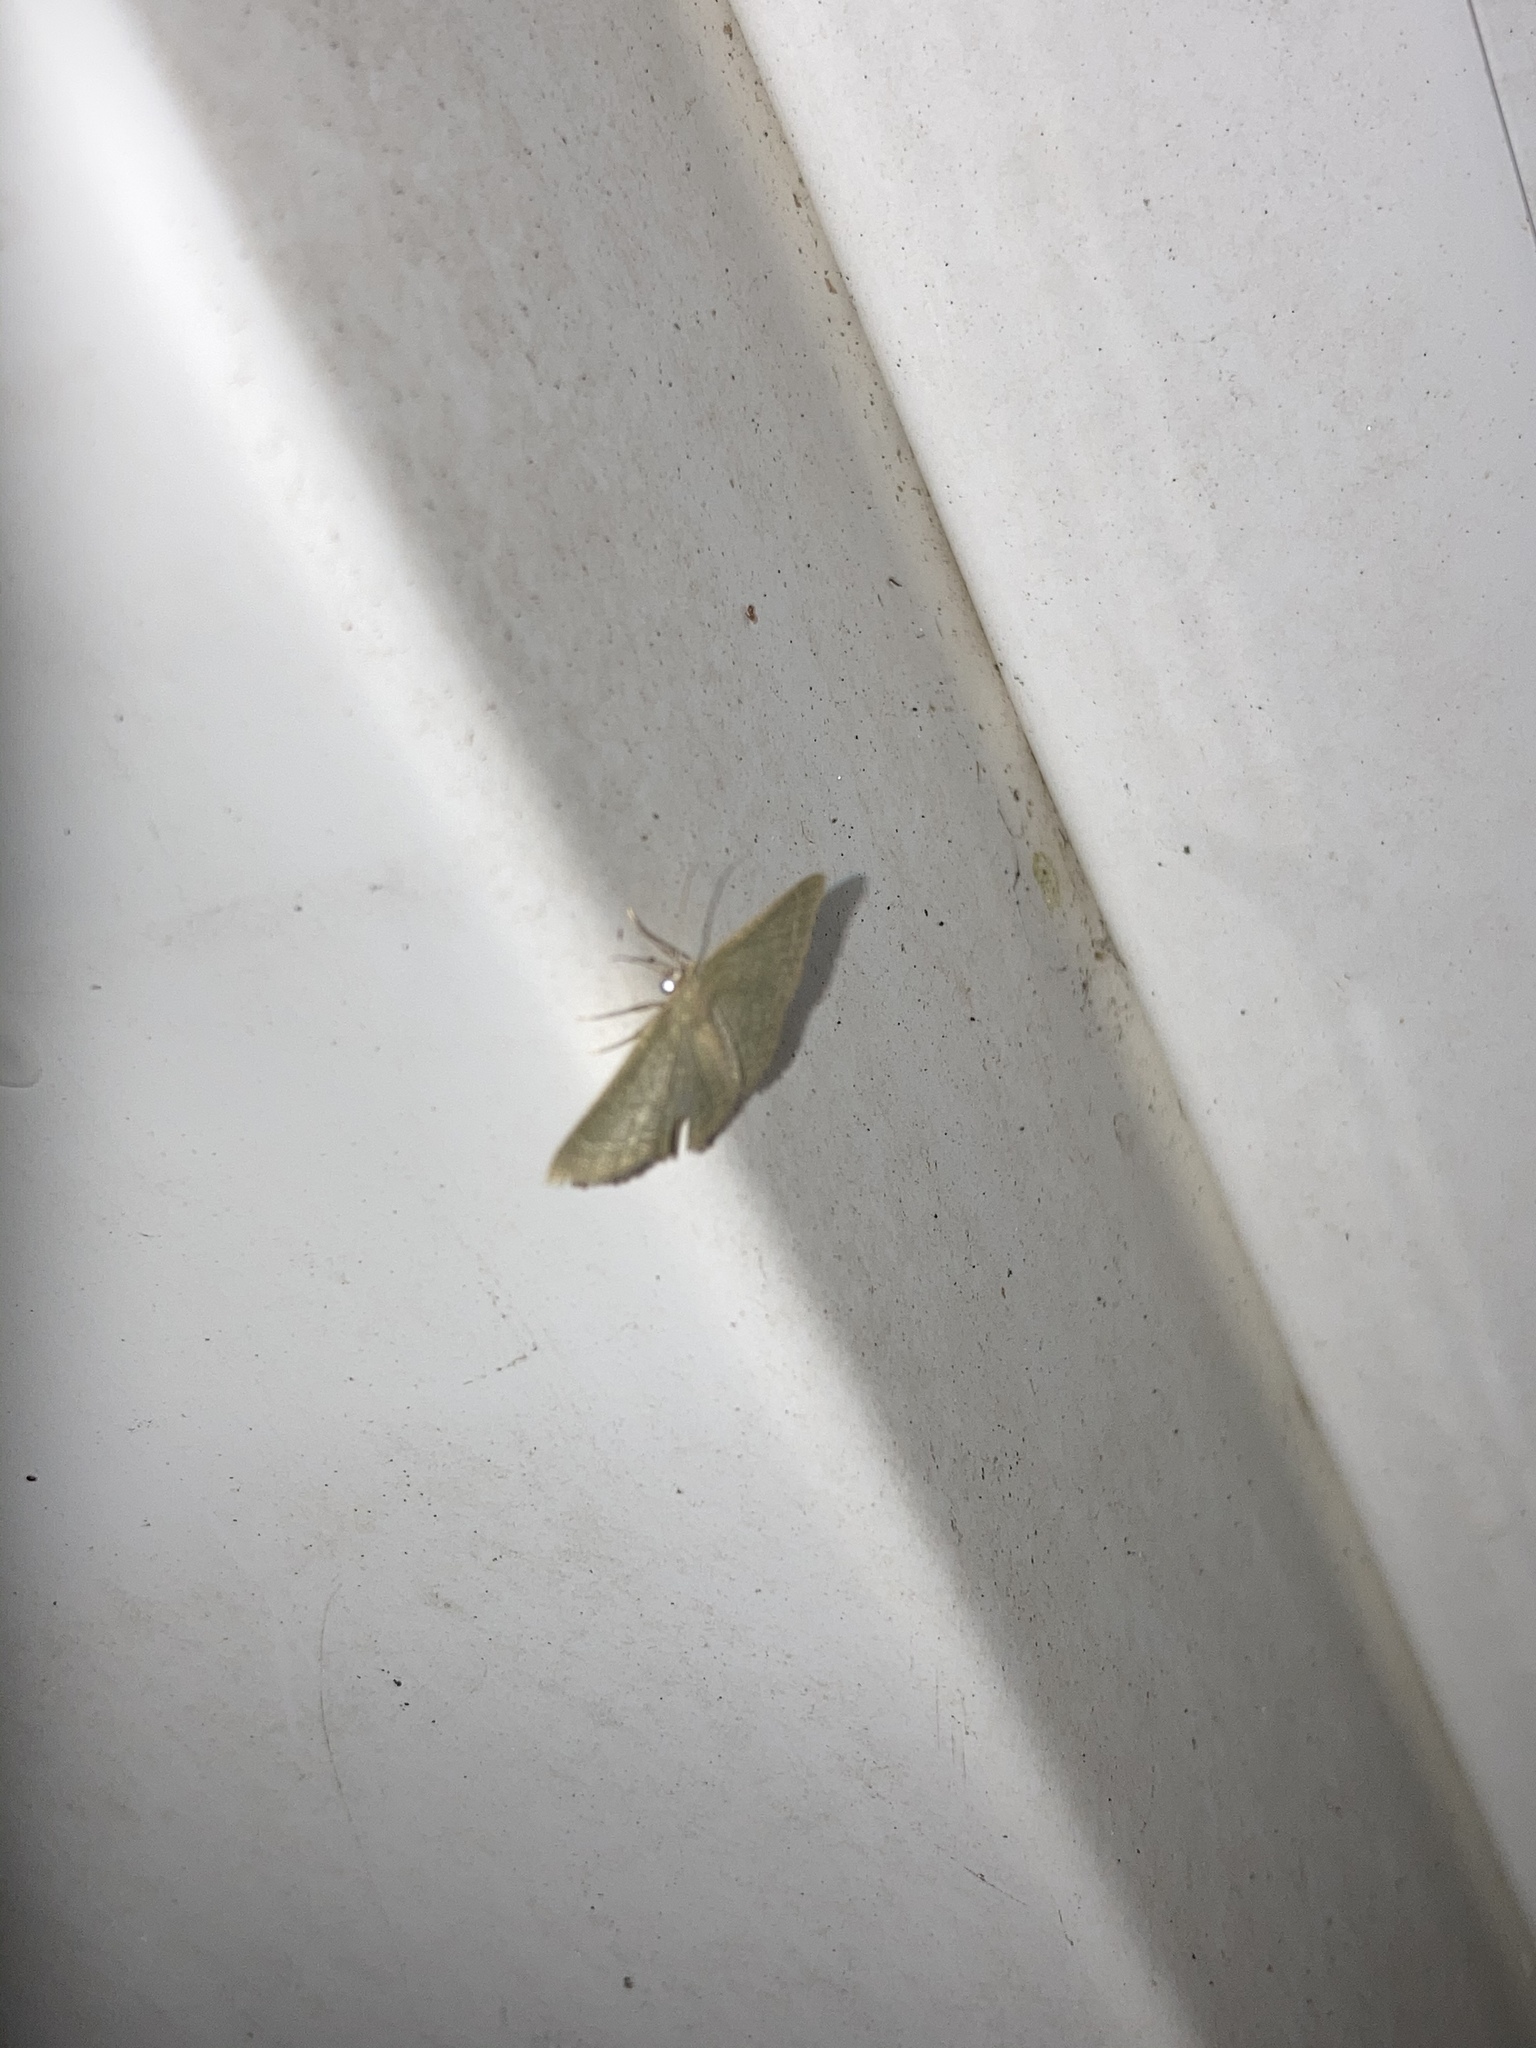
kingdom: Animalia
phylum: Arthropoda
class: Insecta
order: Lepidoptera
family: Geometridae
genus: Pleuroprucha
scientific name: Pleuroprucha asthenaria
